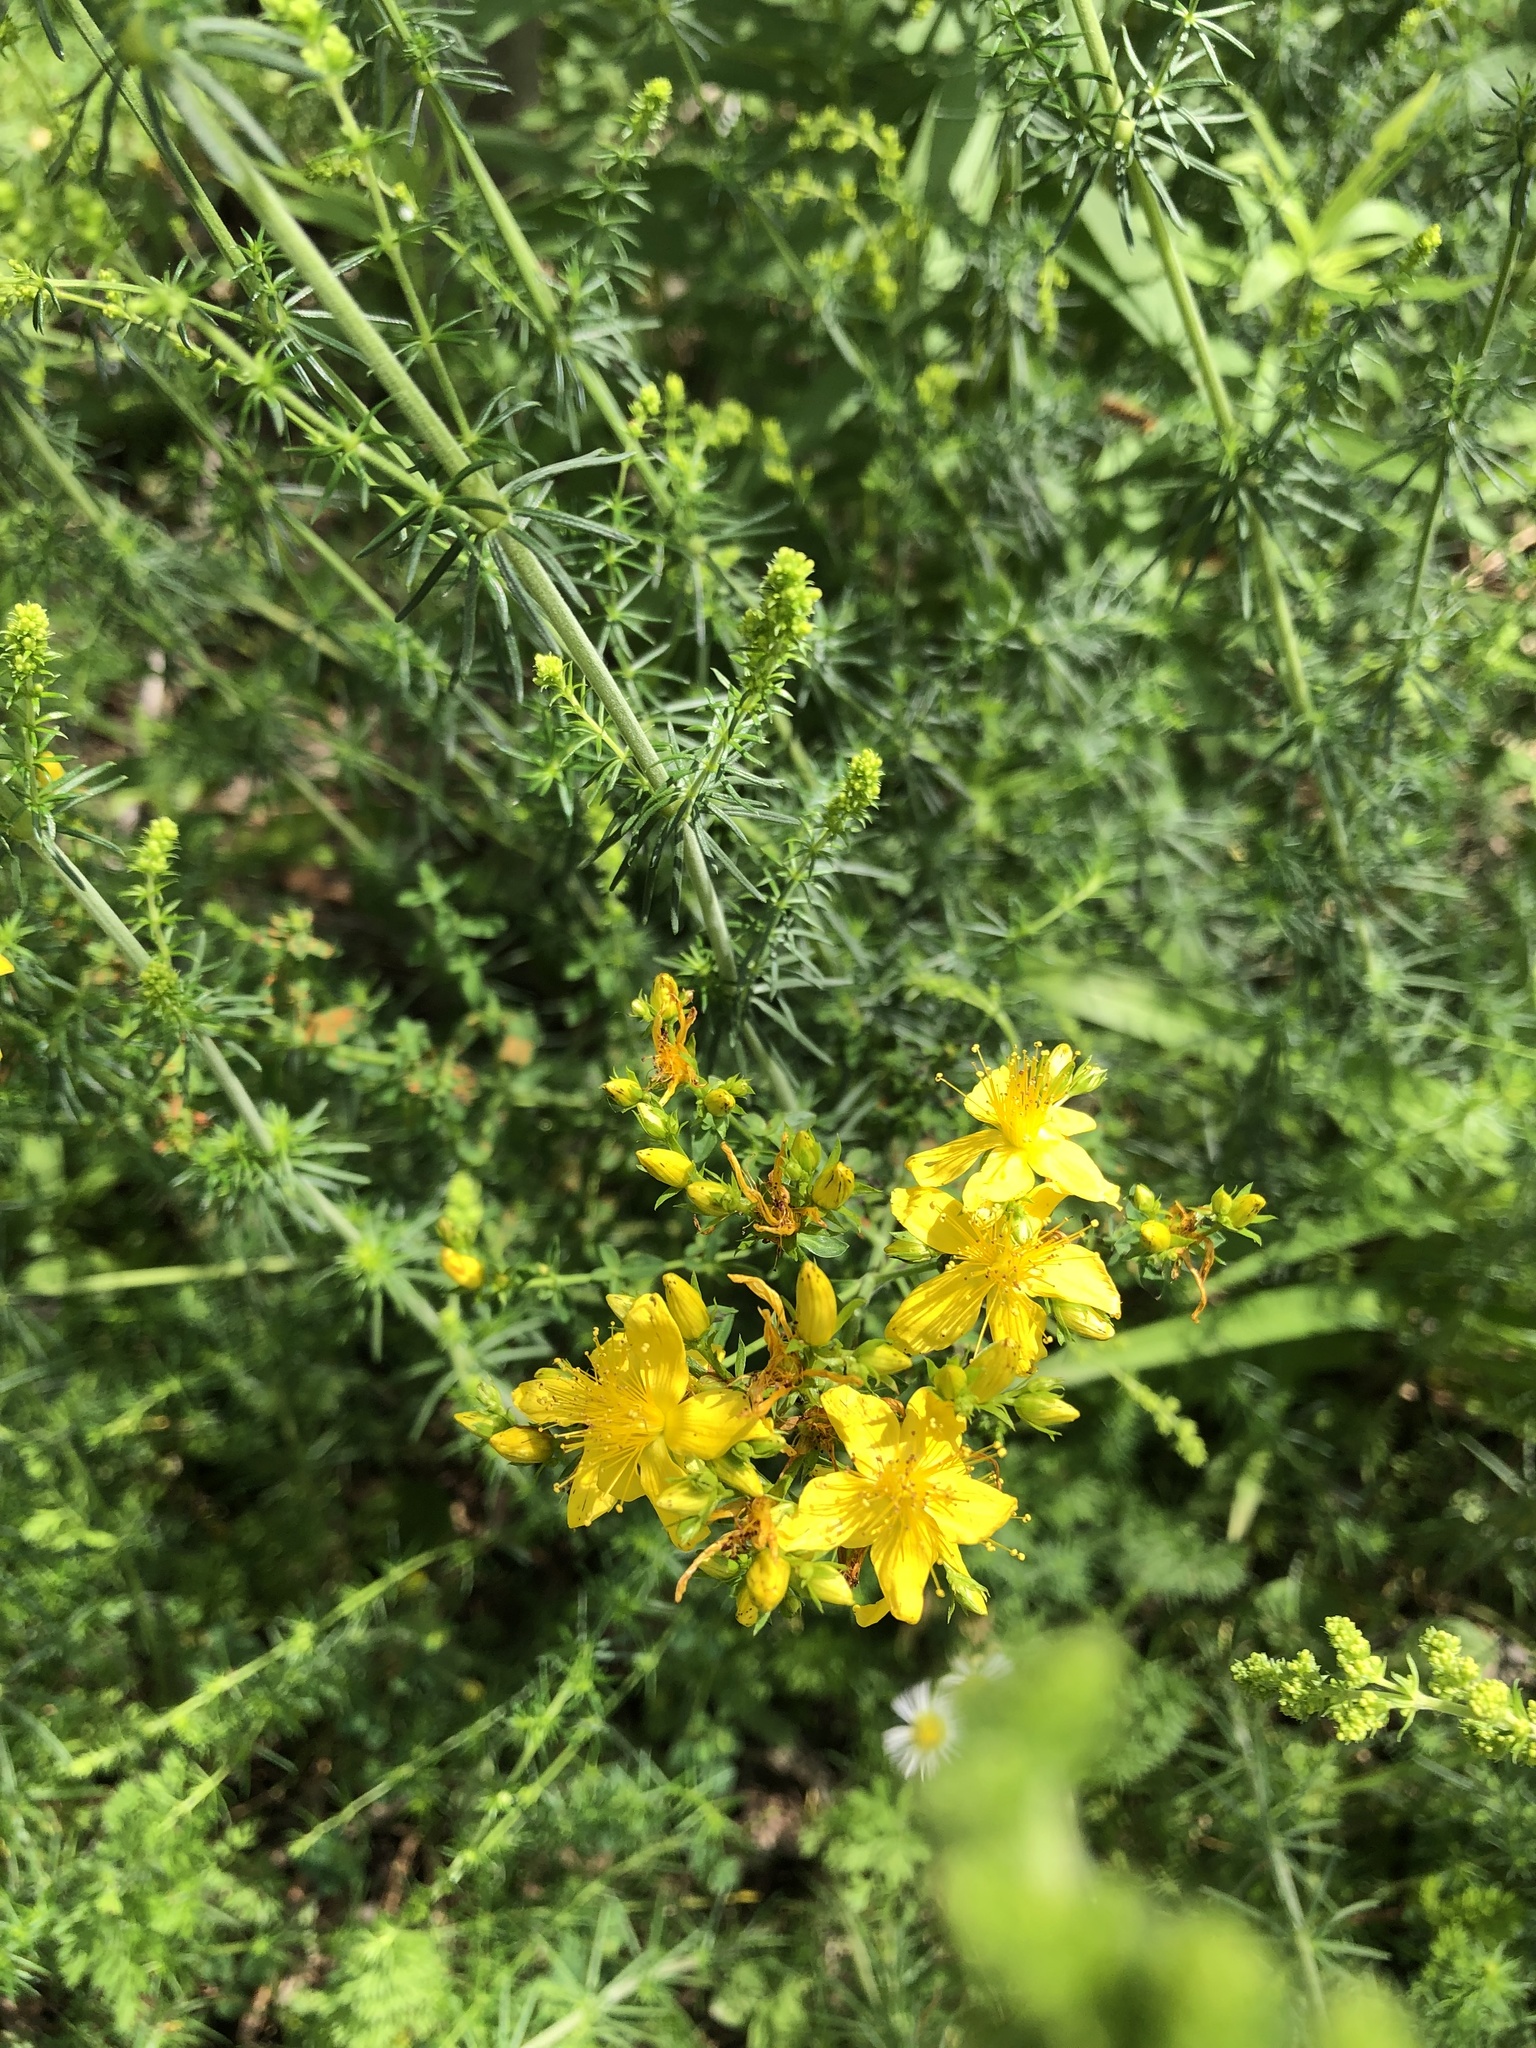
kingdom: Plantae
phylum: Tracheophyta
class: Magnoliopsida
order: Malpighiales
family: Hypericaceae
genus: Hypericum
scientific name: Hypericum perforatum
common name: Common st. johnswort
